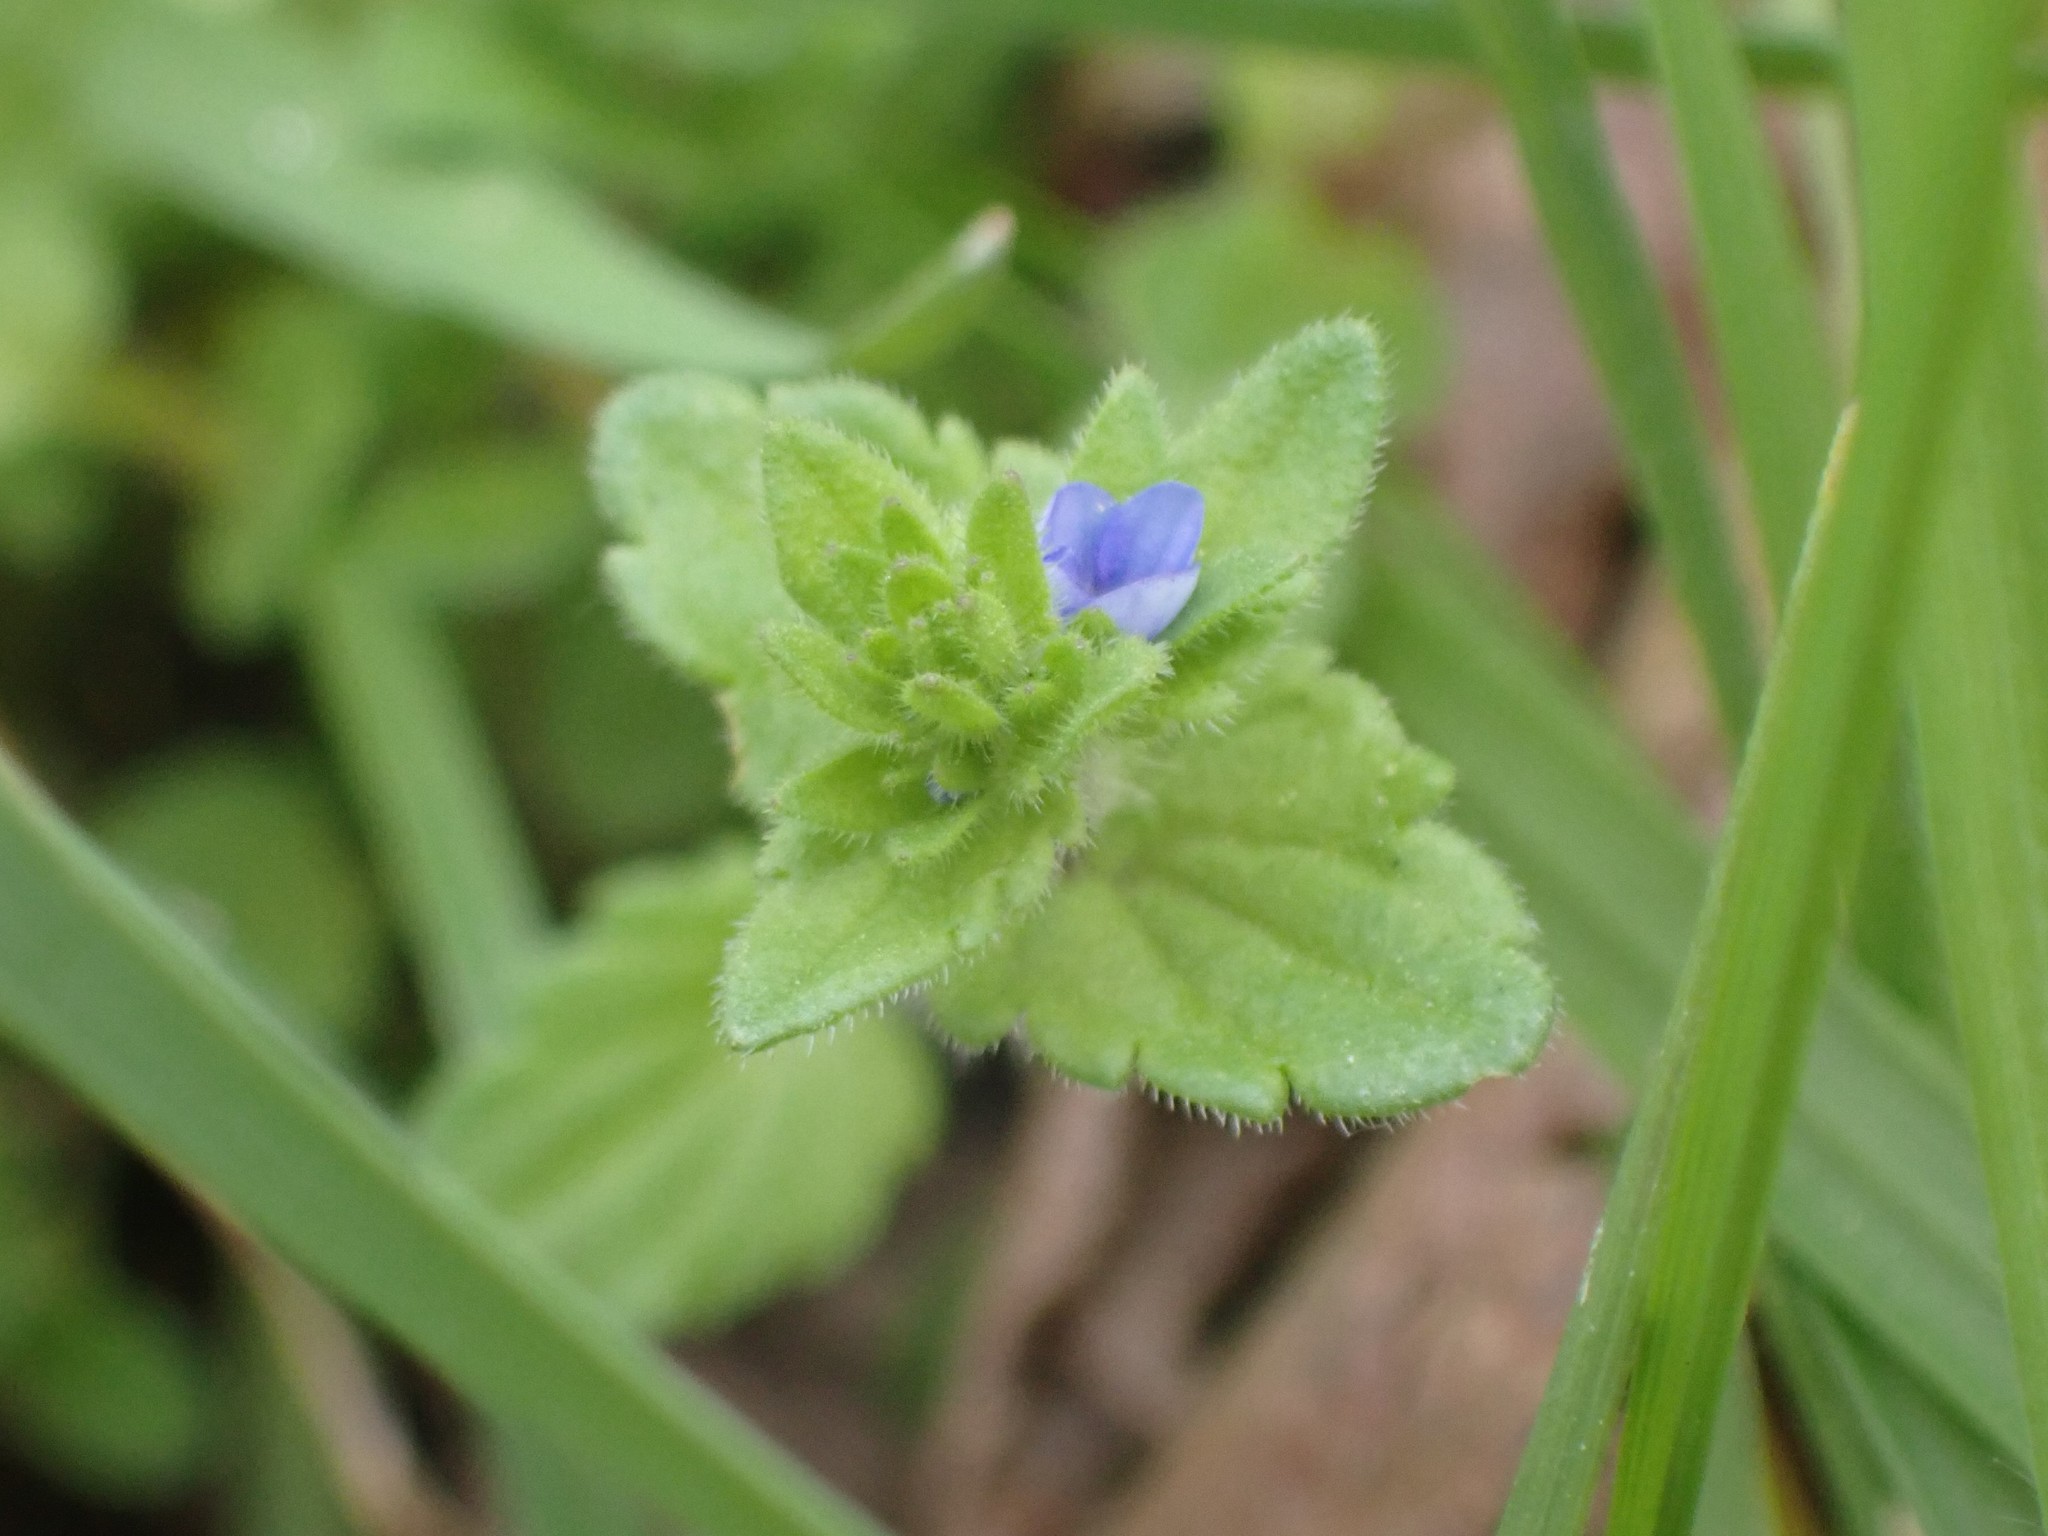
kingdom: Plantae
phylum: Tracheophyta
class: Magnoliopsida
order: Lamiales
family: Plantaginaceae
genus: Veronica
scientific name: Veronica arvensis
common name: Corn speedwell
